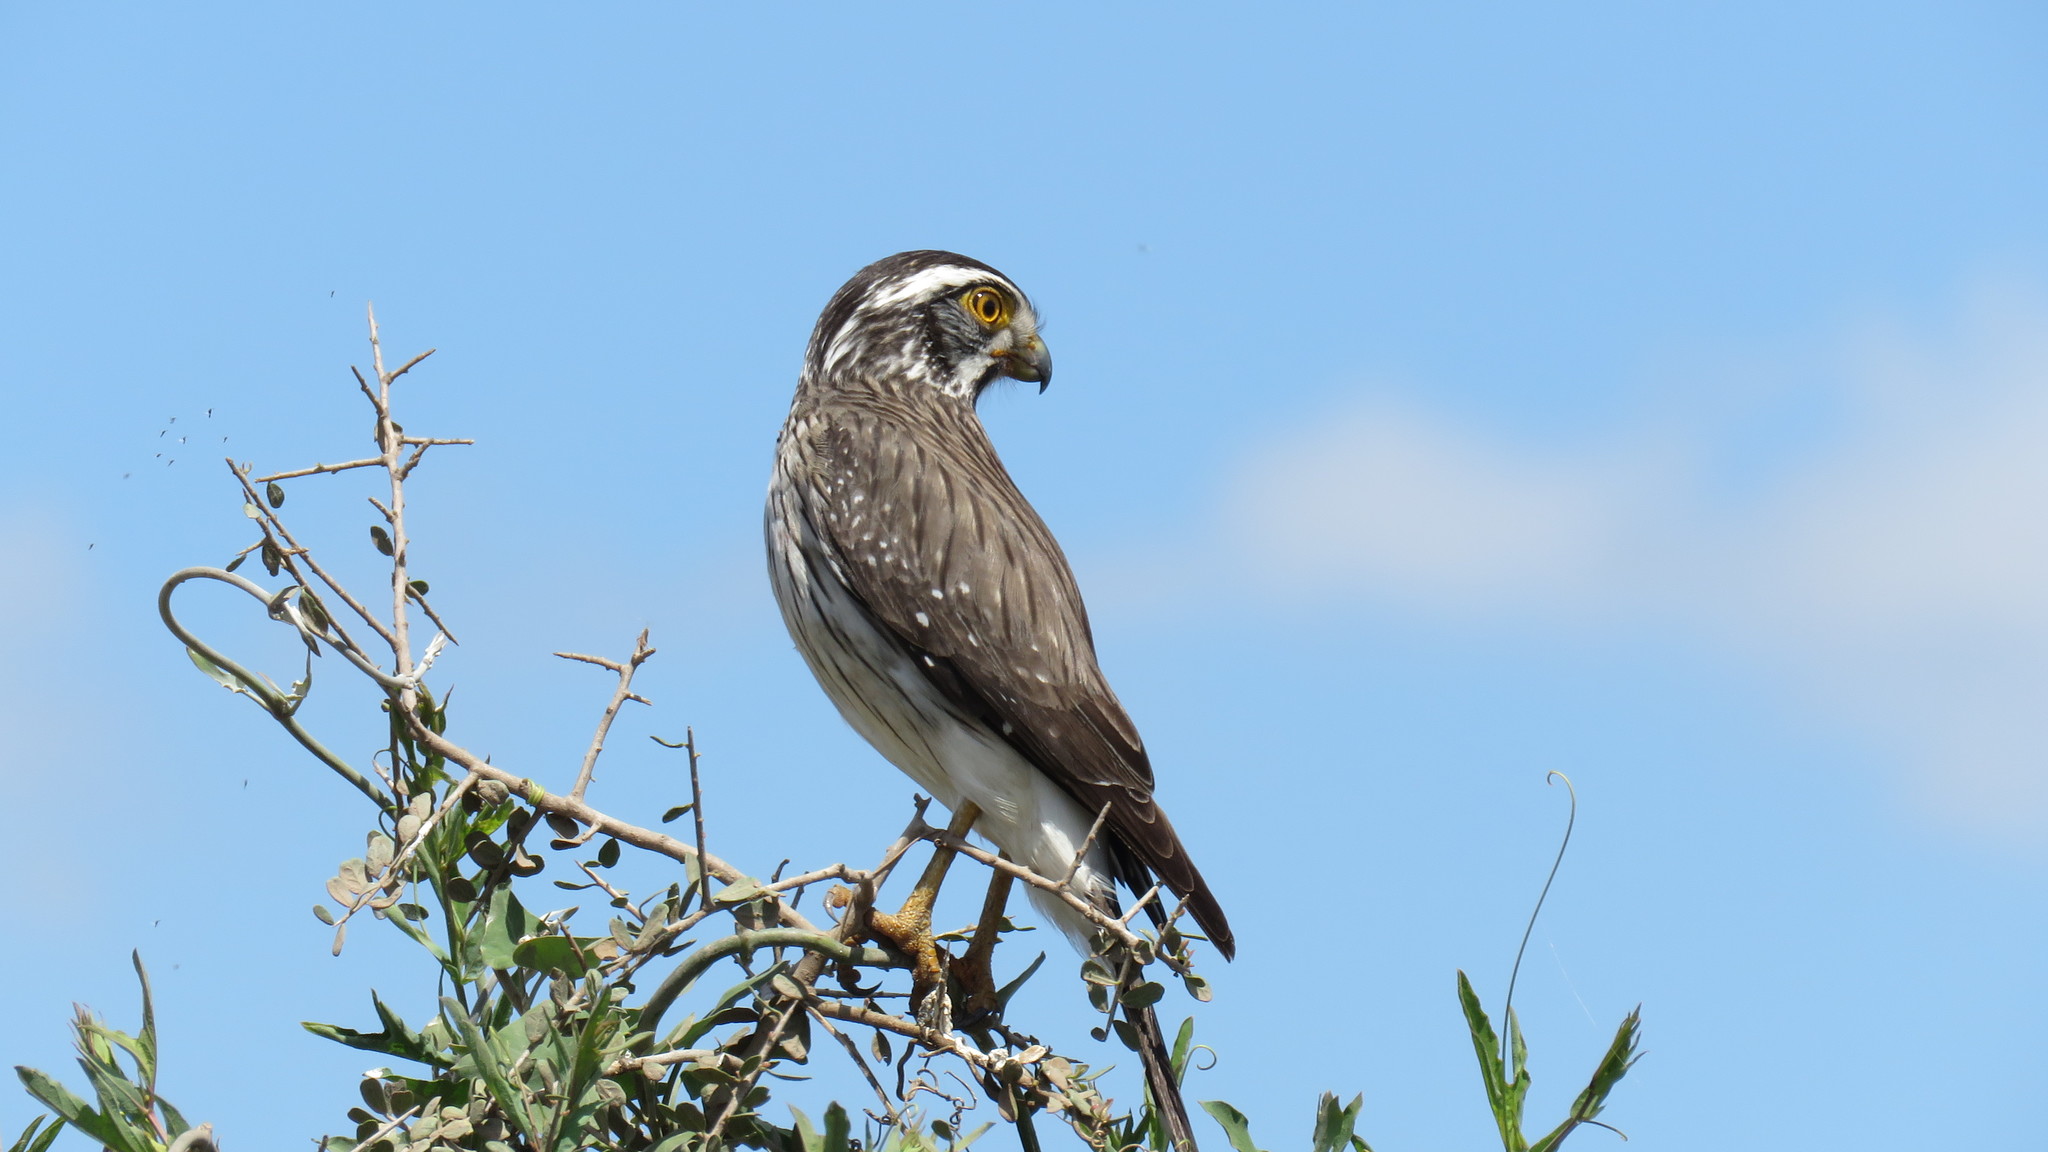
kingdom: Animalia
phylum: Chordata
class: Aves
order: Falconiformes
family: Falconidae
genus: Spiziapteryx
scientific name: Spiziapteryx circumcincta
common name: Spot-winged falconet
